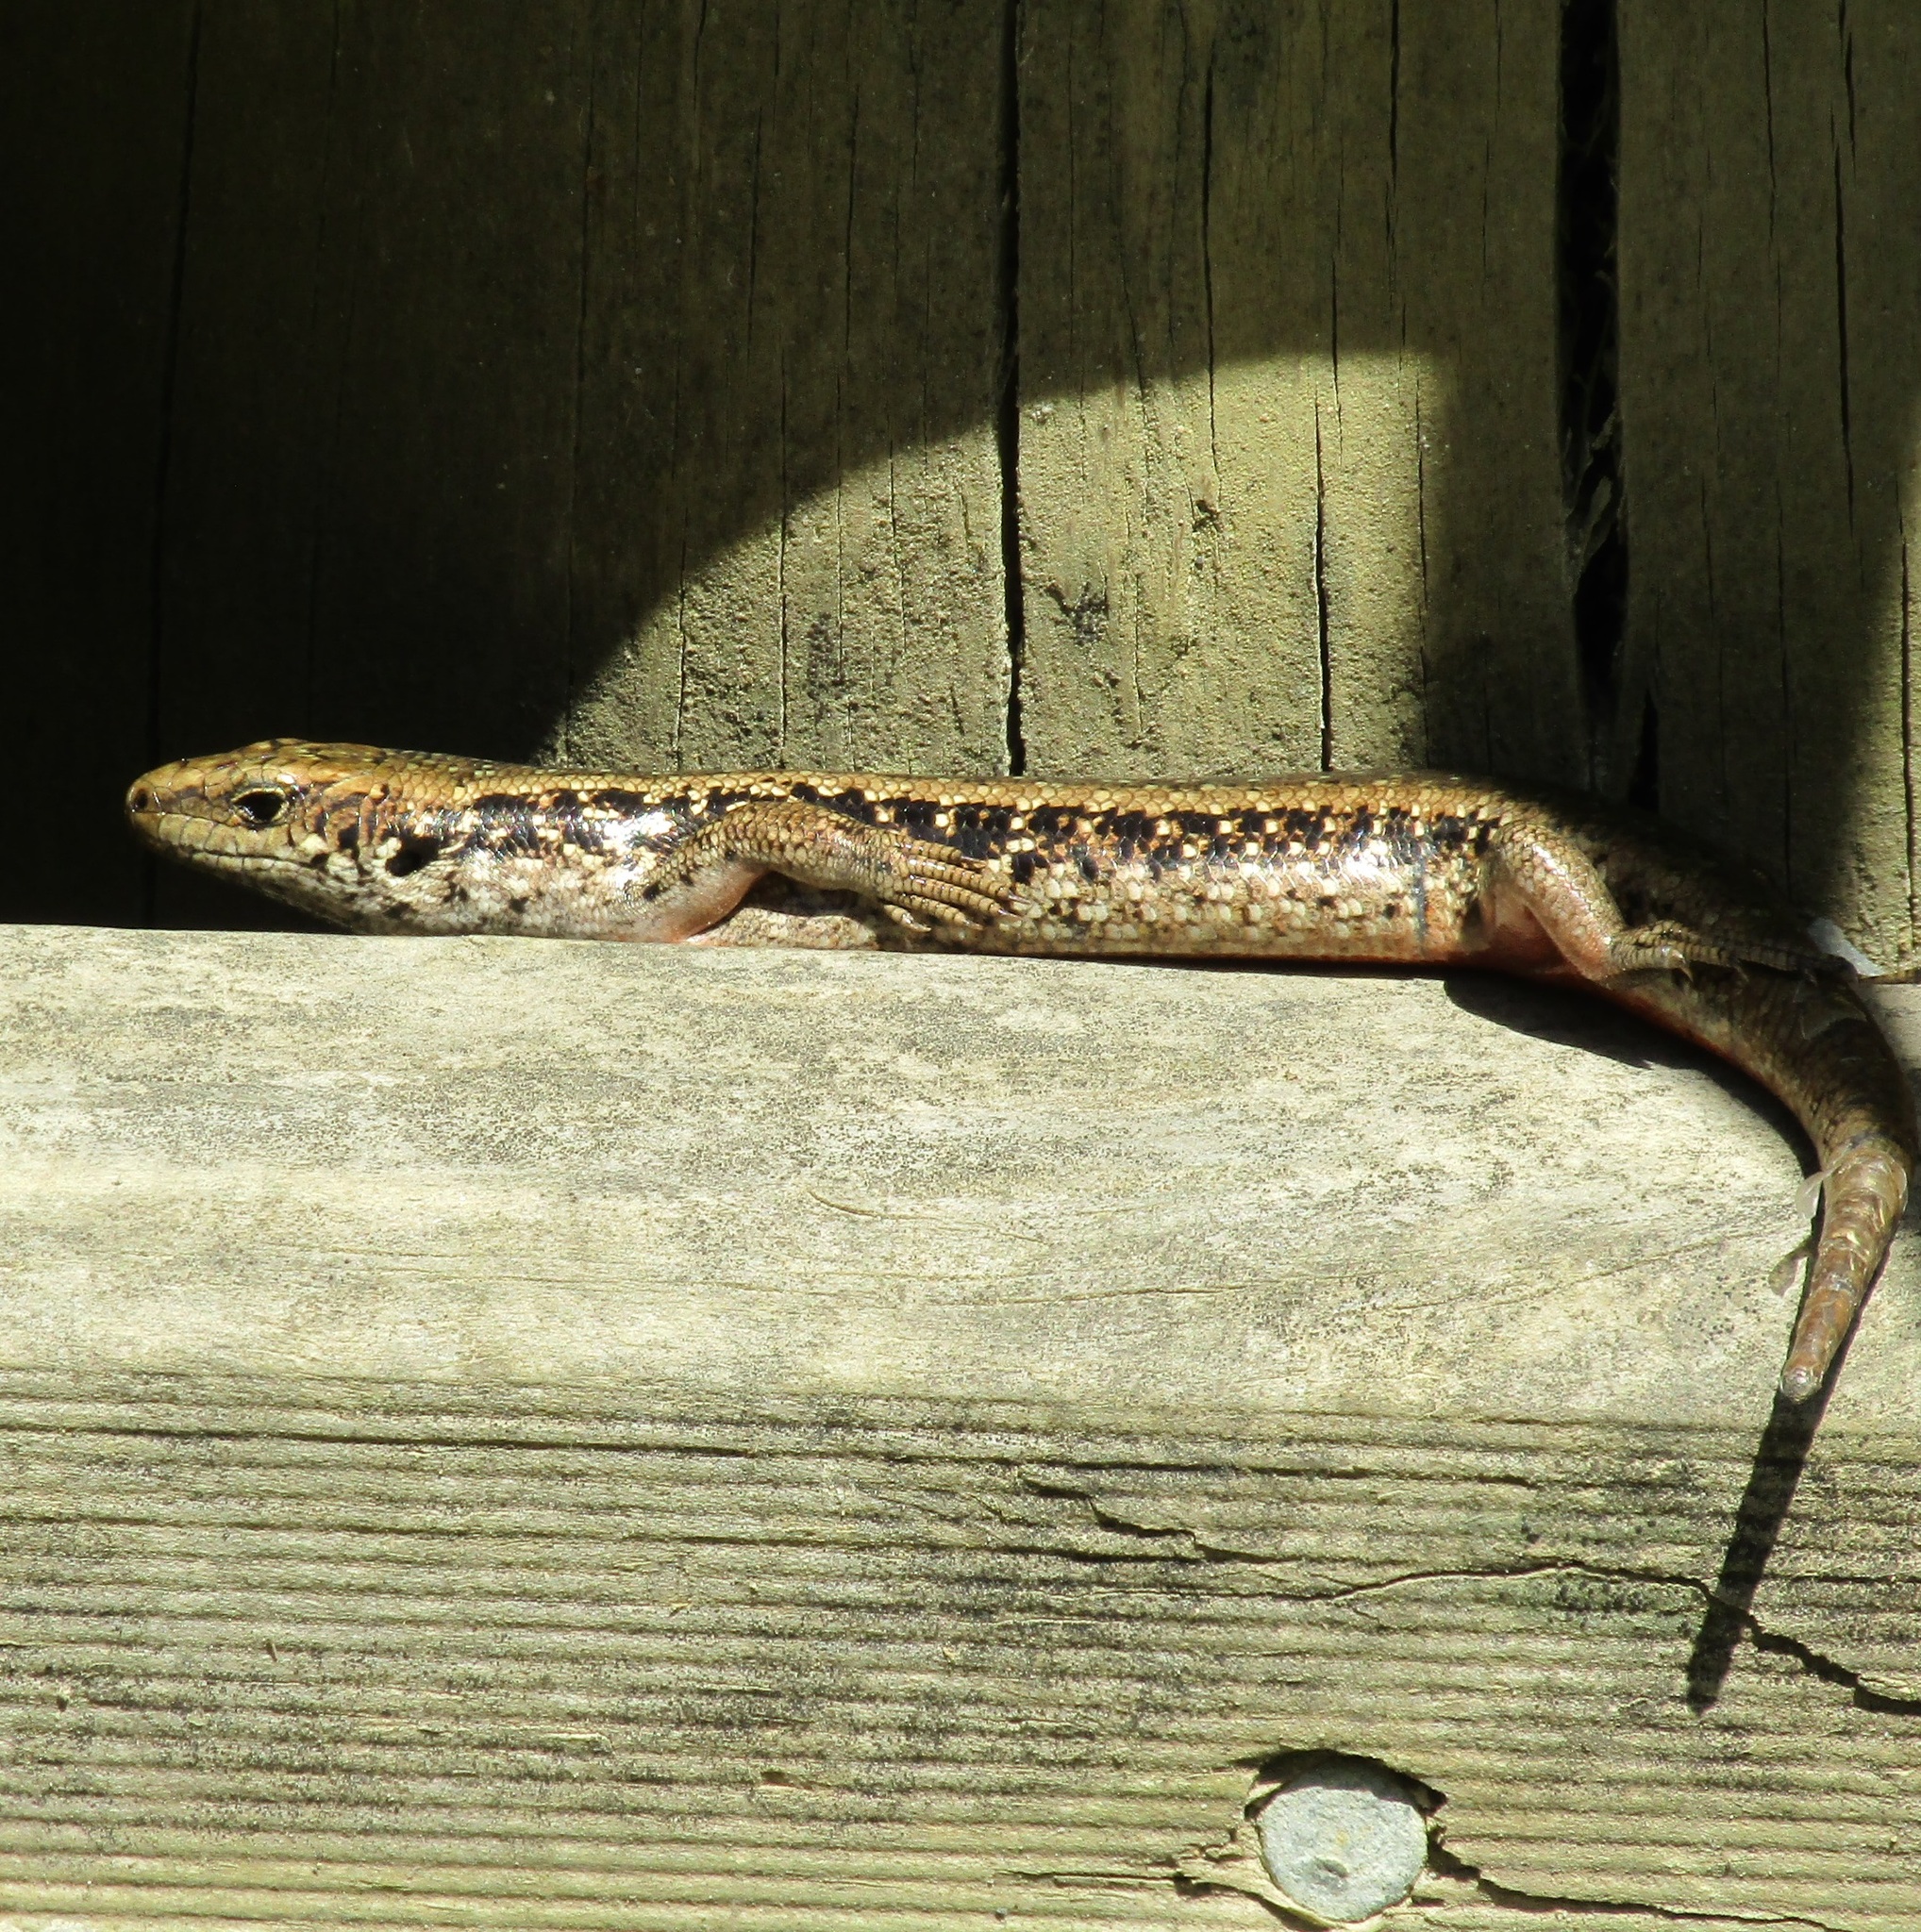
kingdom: Animalia
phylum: Chordata
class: Squamata
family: Scincidae
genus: Oligosoma
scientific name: Oligosoma kokowai
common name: Northern spotted skink
